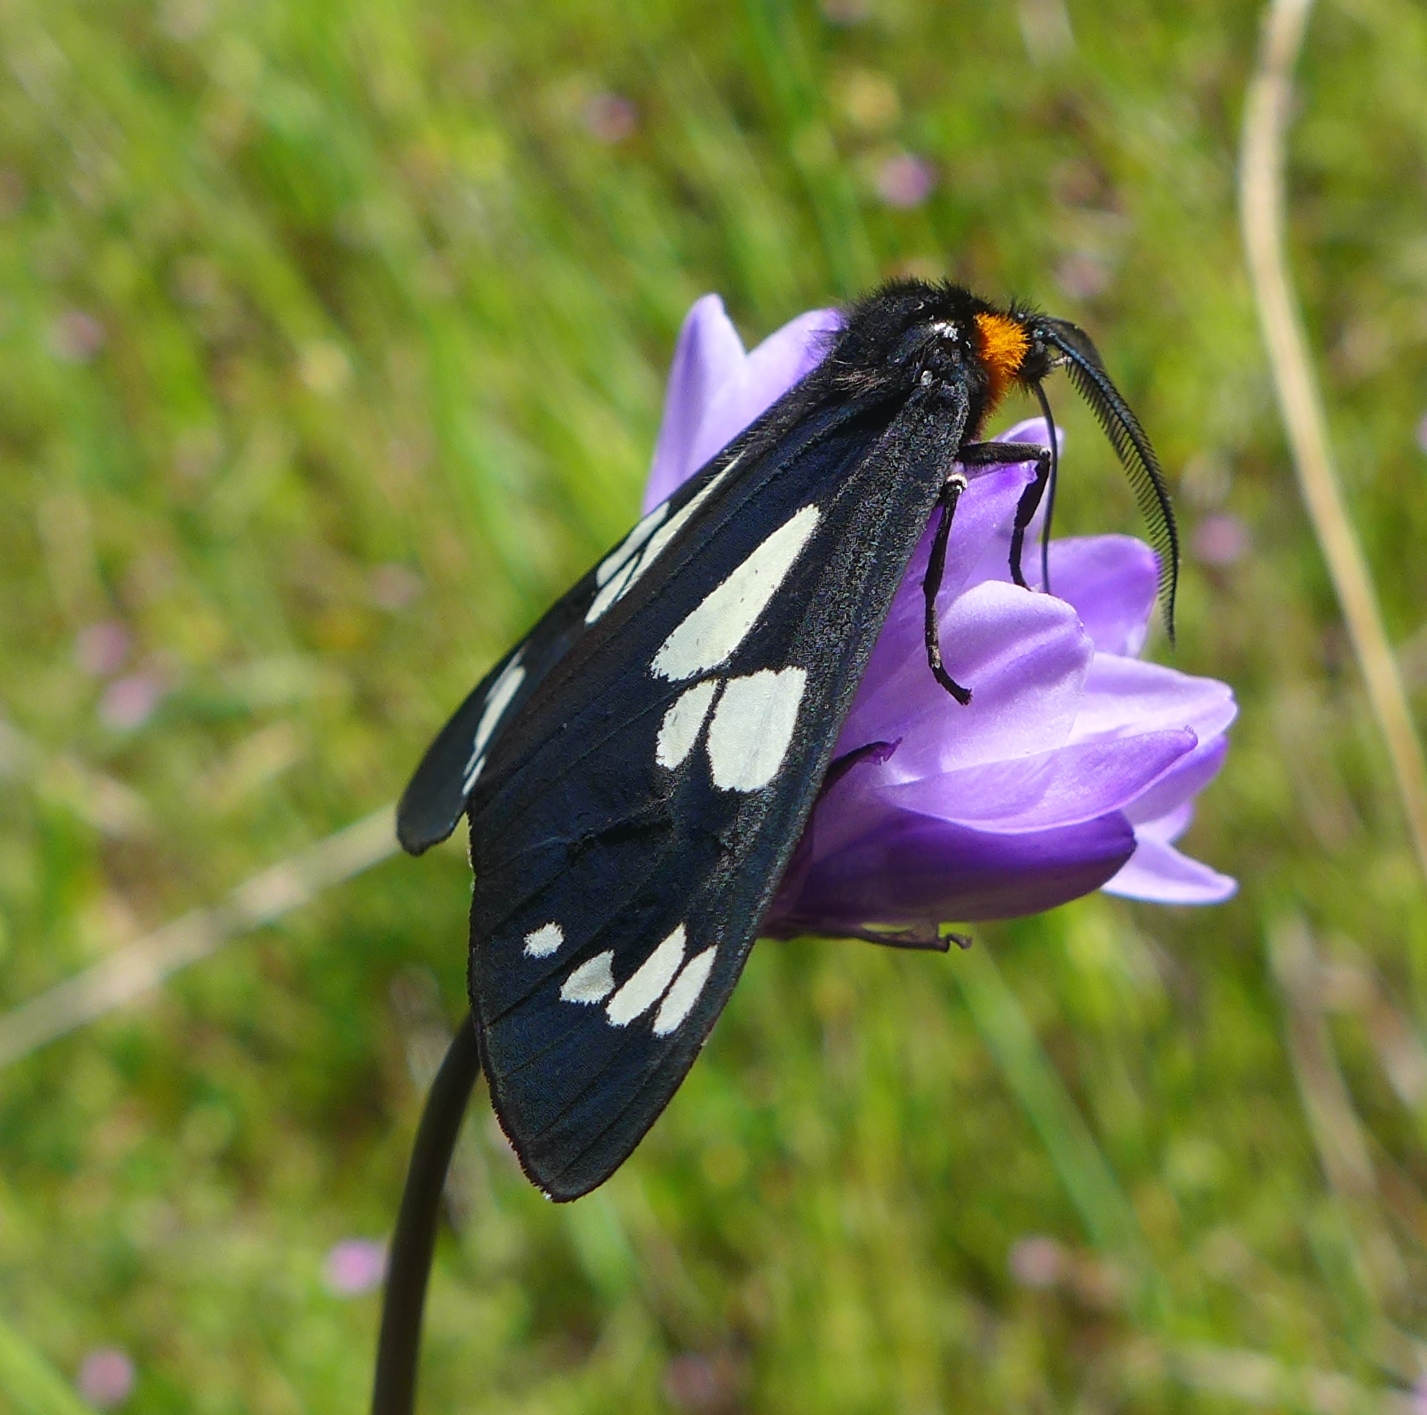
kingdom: Animalia
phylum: Arthropoda
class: Insecta
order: Lepidoptera
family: Erebidae
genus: Gnophaela
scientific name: Gnophaela latipennis
